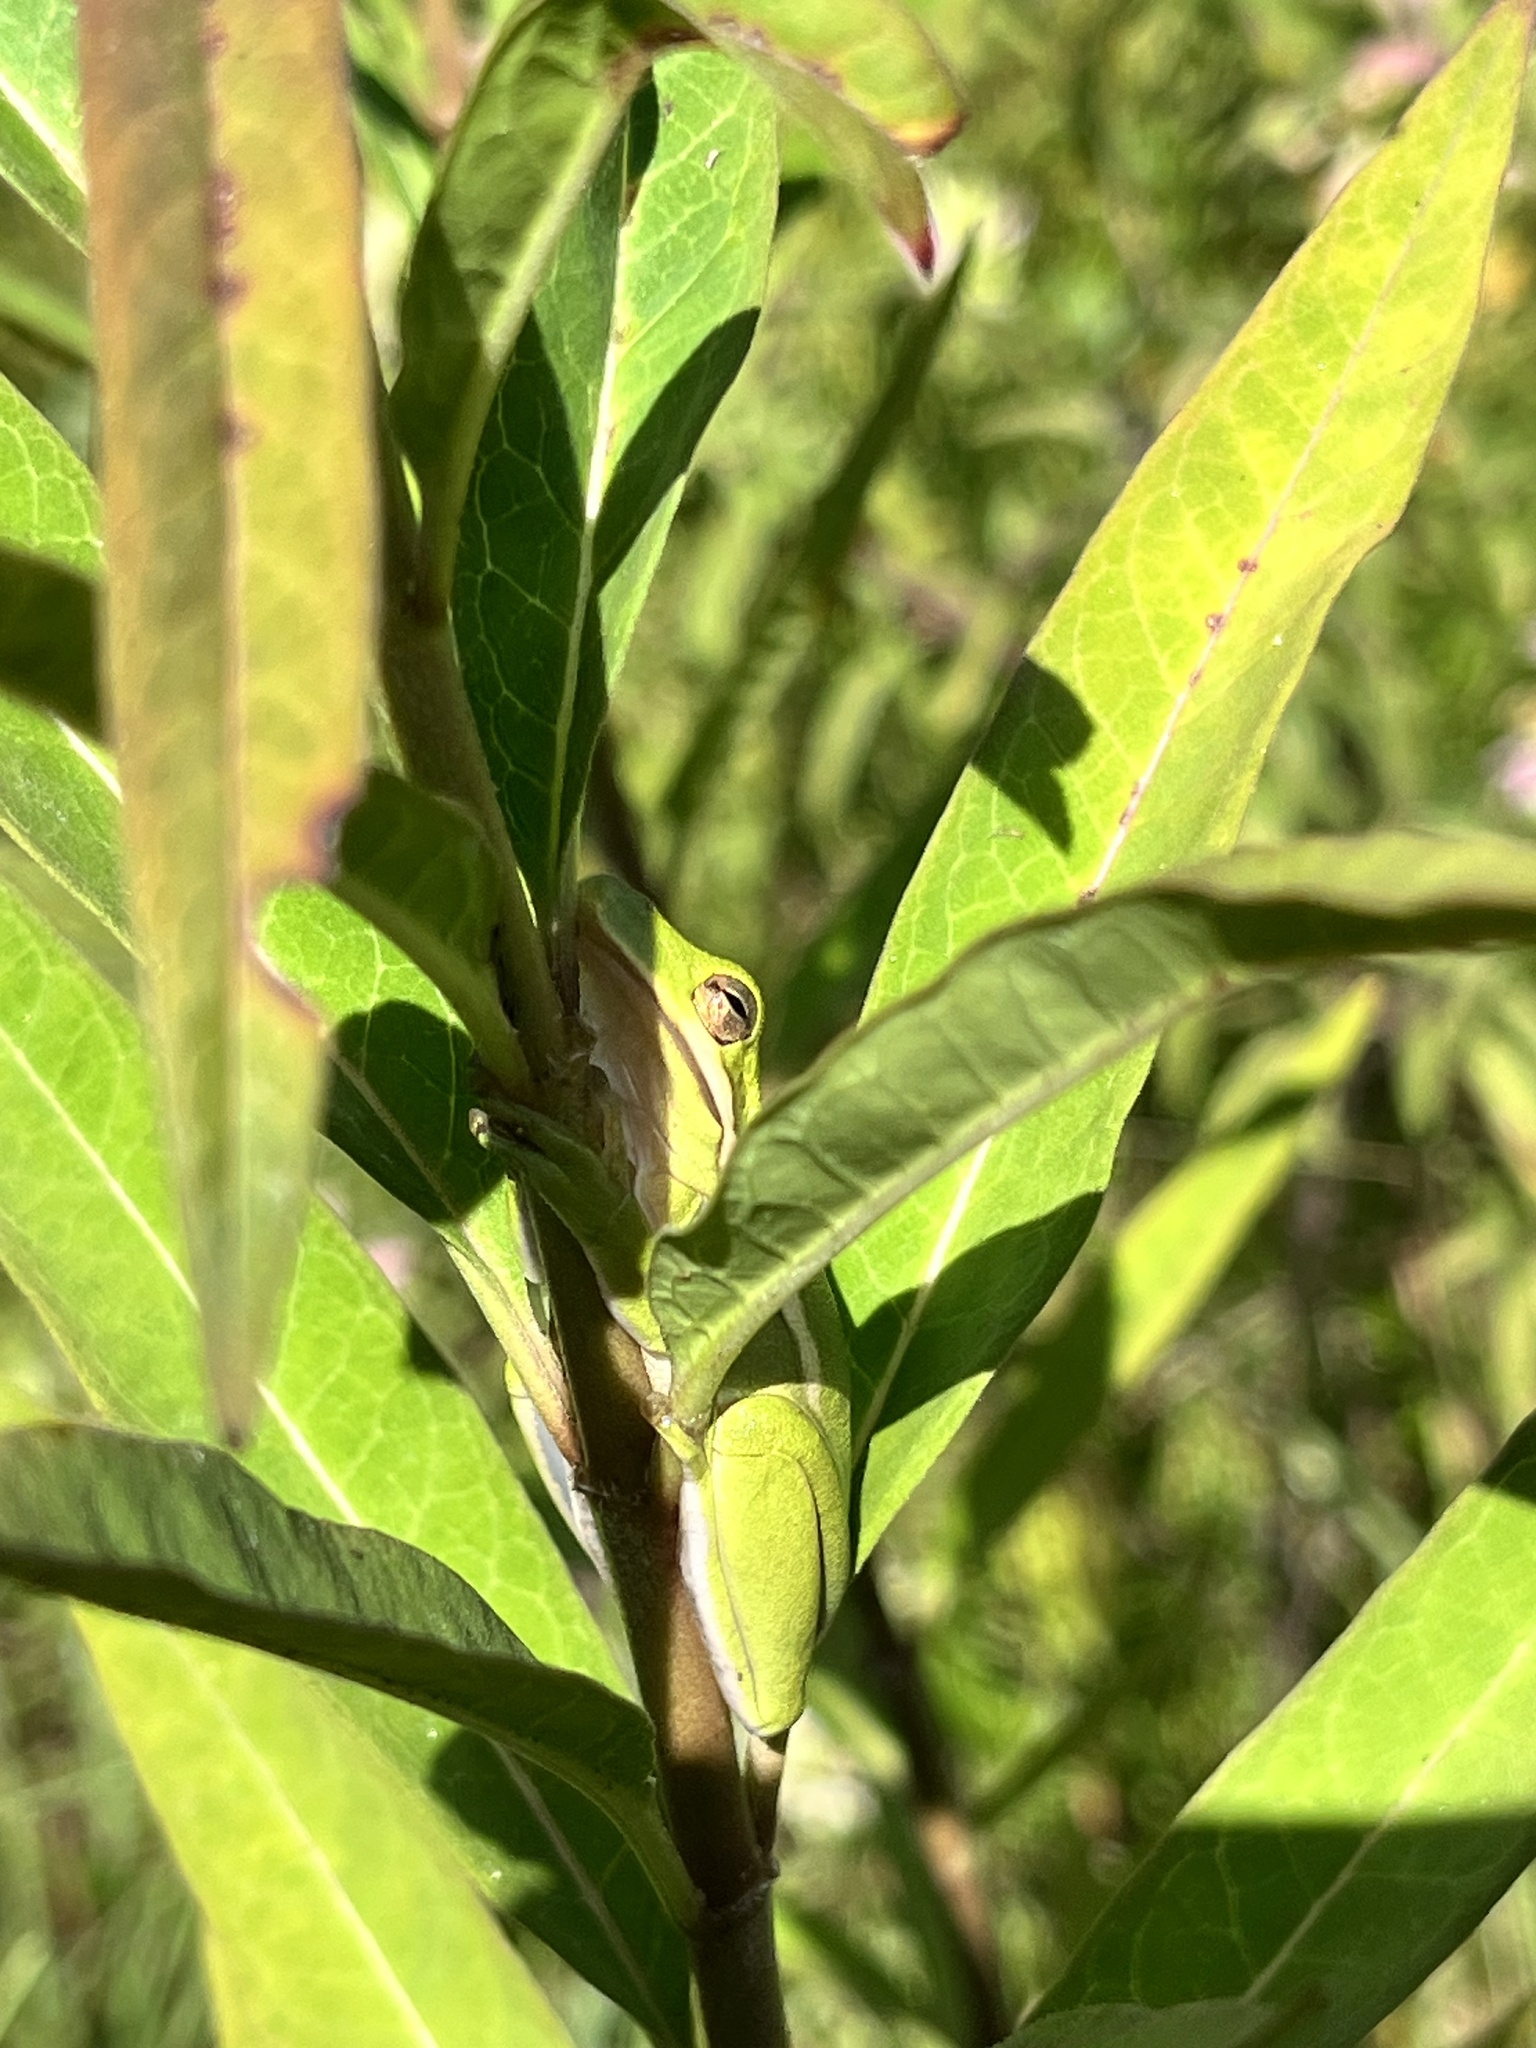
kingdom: Animalia
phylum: Chordata
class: Amphibia
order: Anura
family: Hylidae
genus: Dryophytes
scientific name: Dryophytes cinereus
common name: Green treefrog
